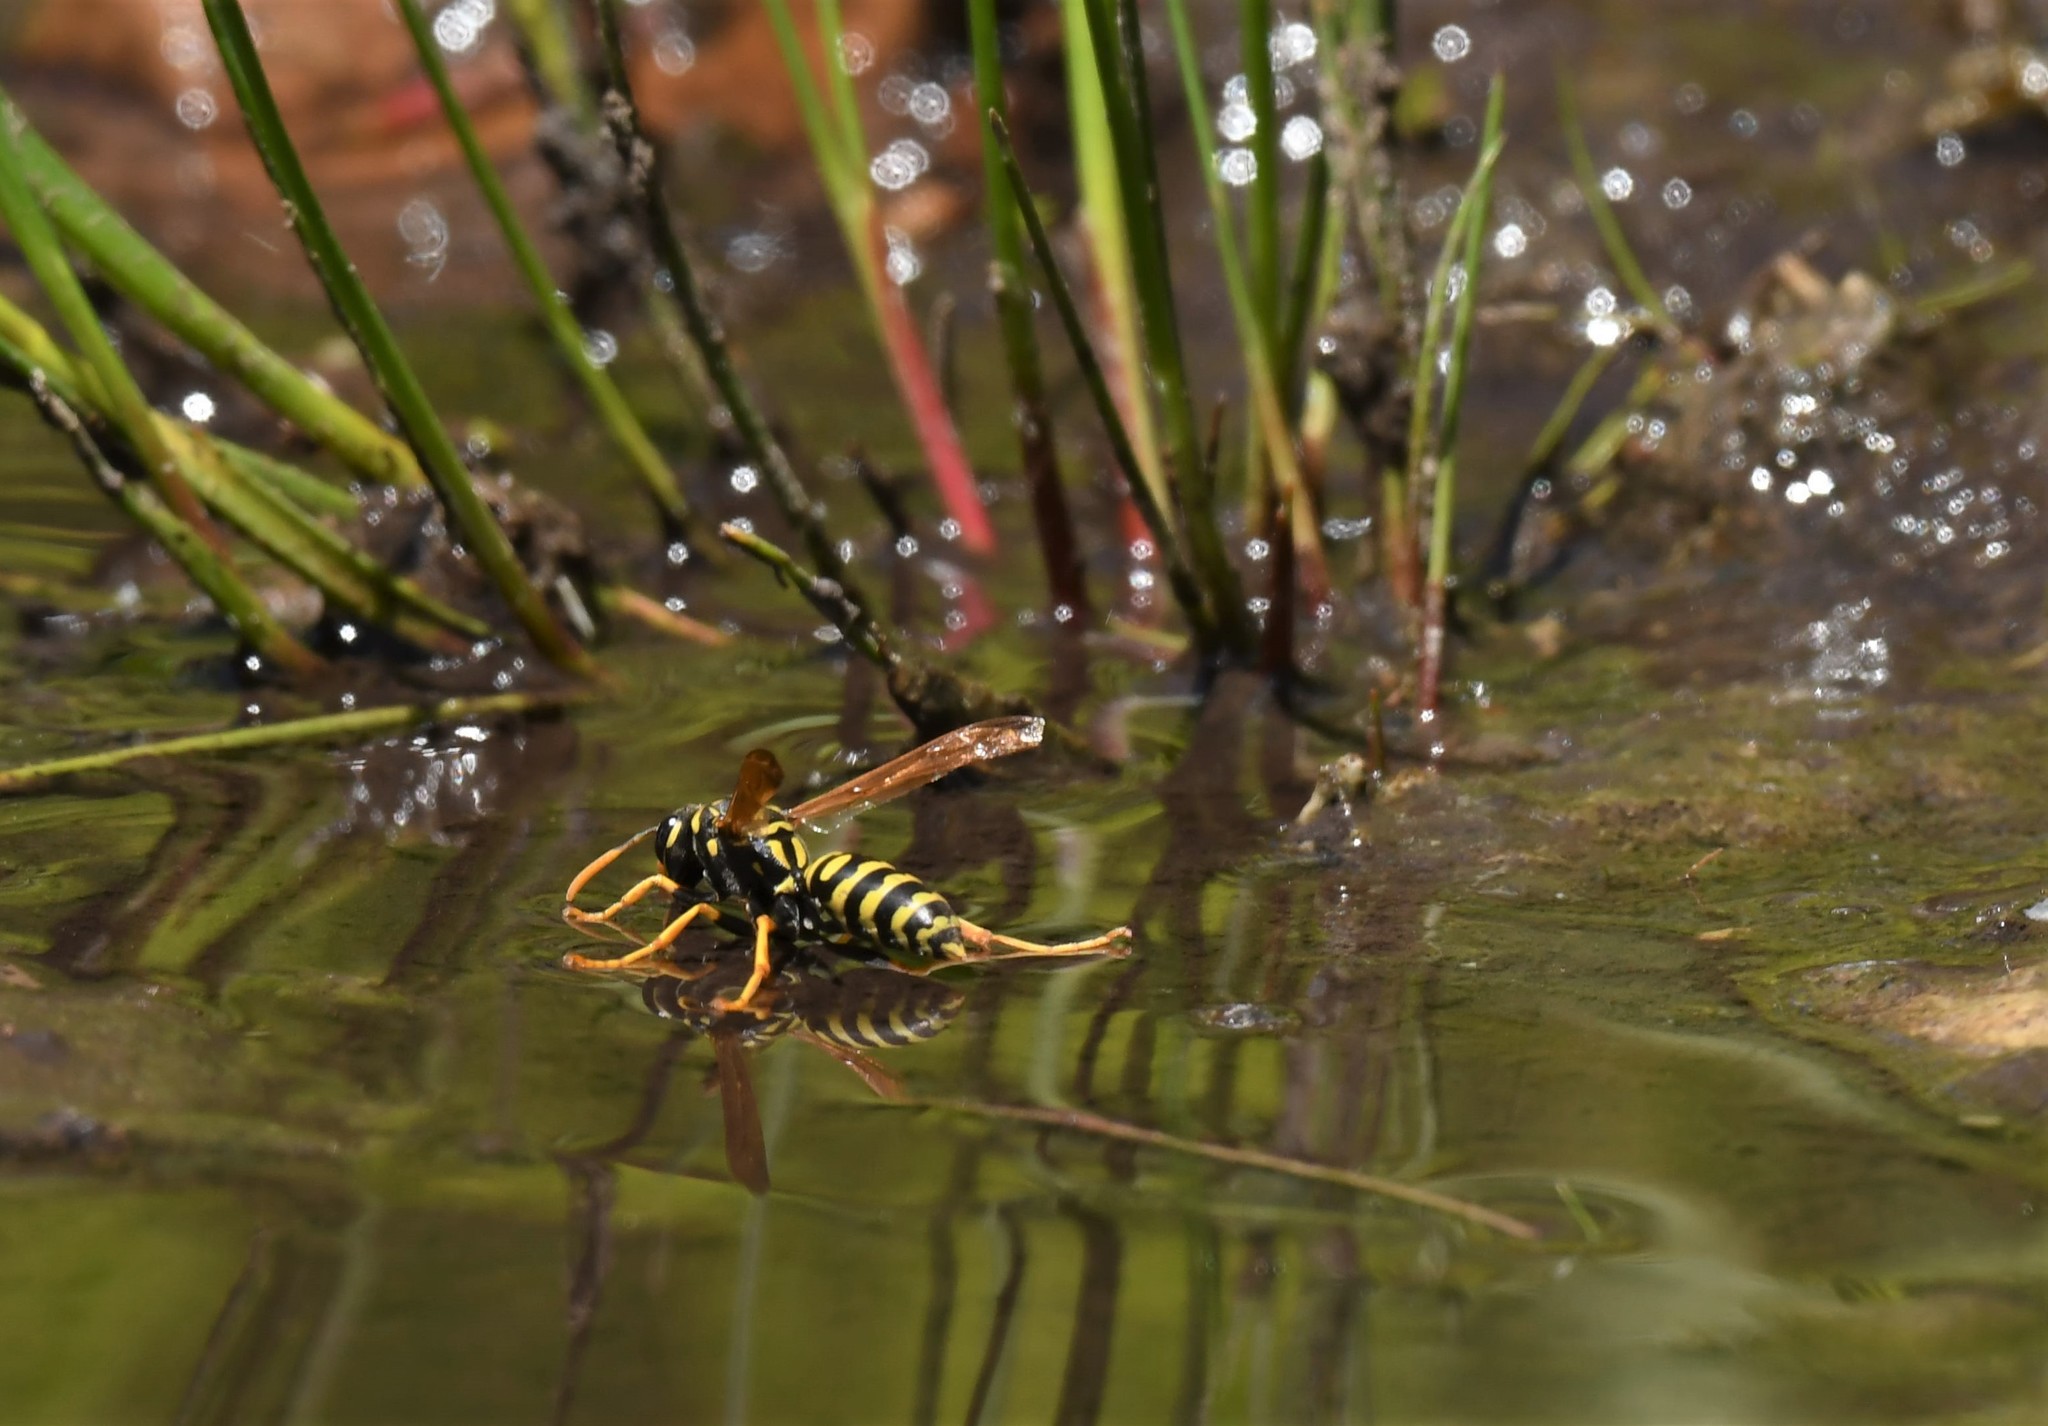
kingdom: Animalia
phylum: Arthropoda
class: Insecta
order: Hymenoptera
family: Eumenidae
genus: Polistes
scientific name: Polistes dominula
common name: Paper wasp
